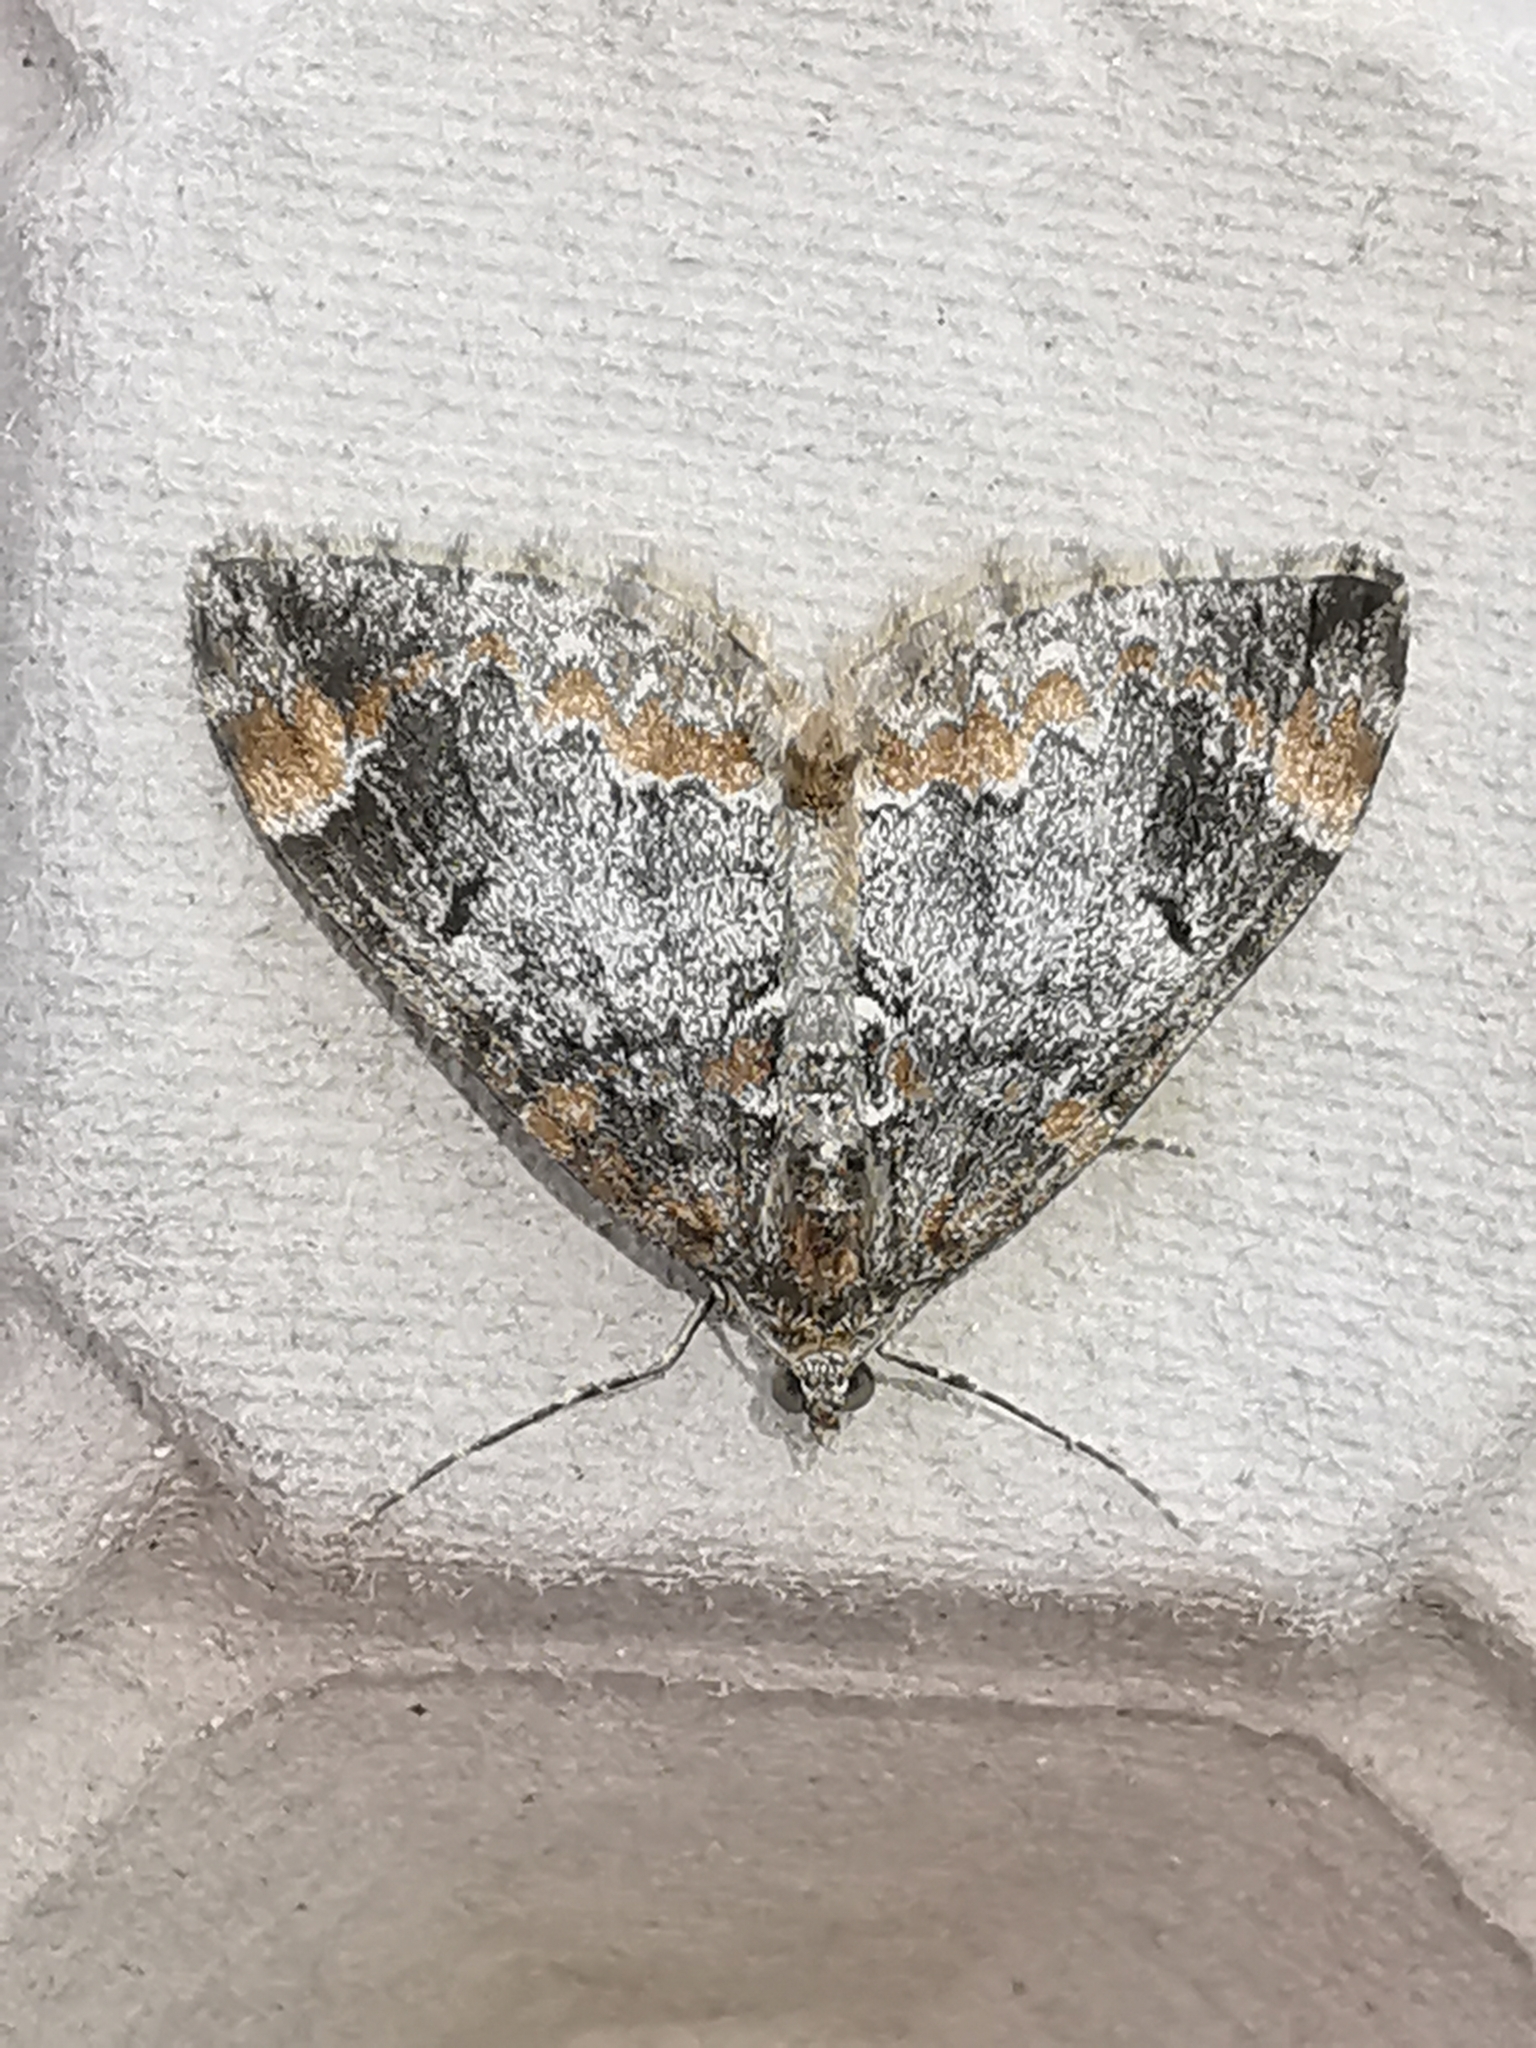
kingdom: Animalia
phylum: Arthropoda
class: Insecta
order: Lepidoptera
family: Geometridae
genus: Dysstroma
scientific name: Dysstroma truncata
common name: Common marbled carpet
